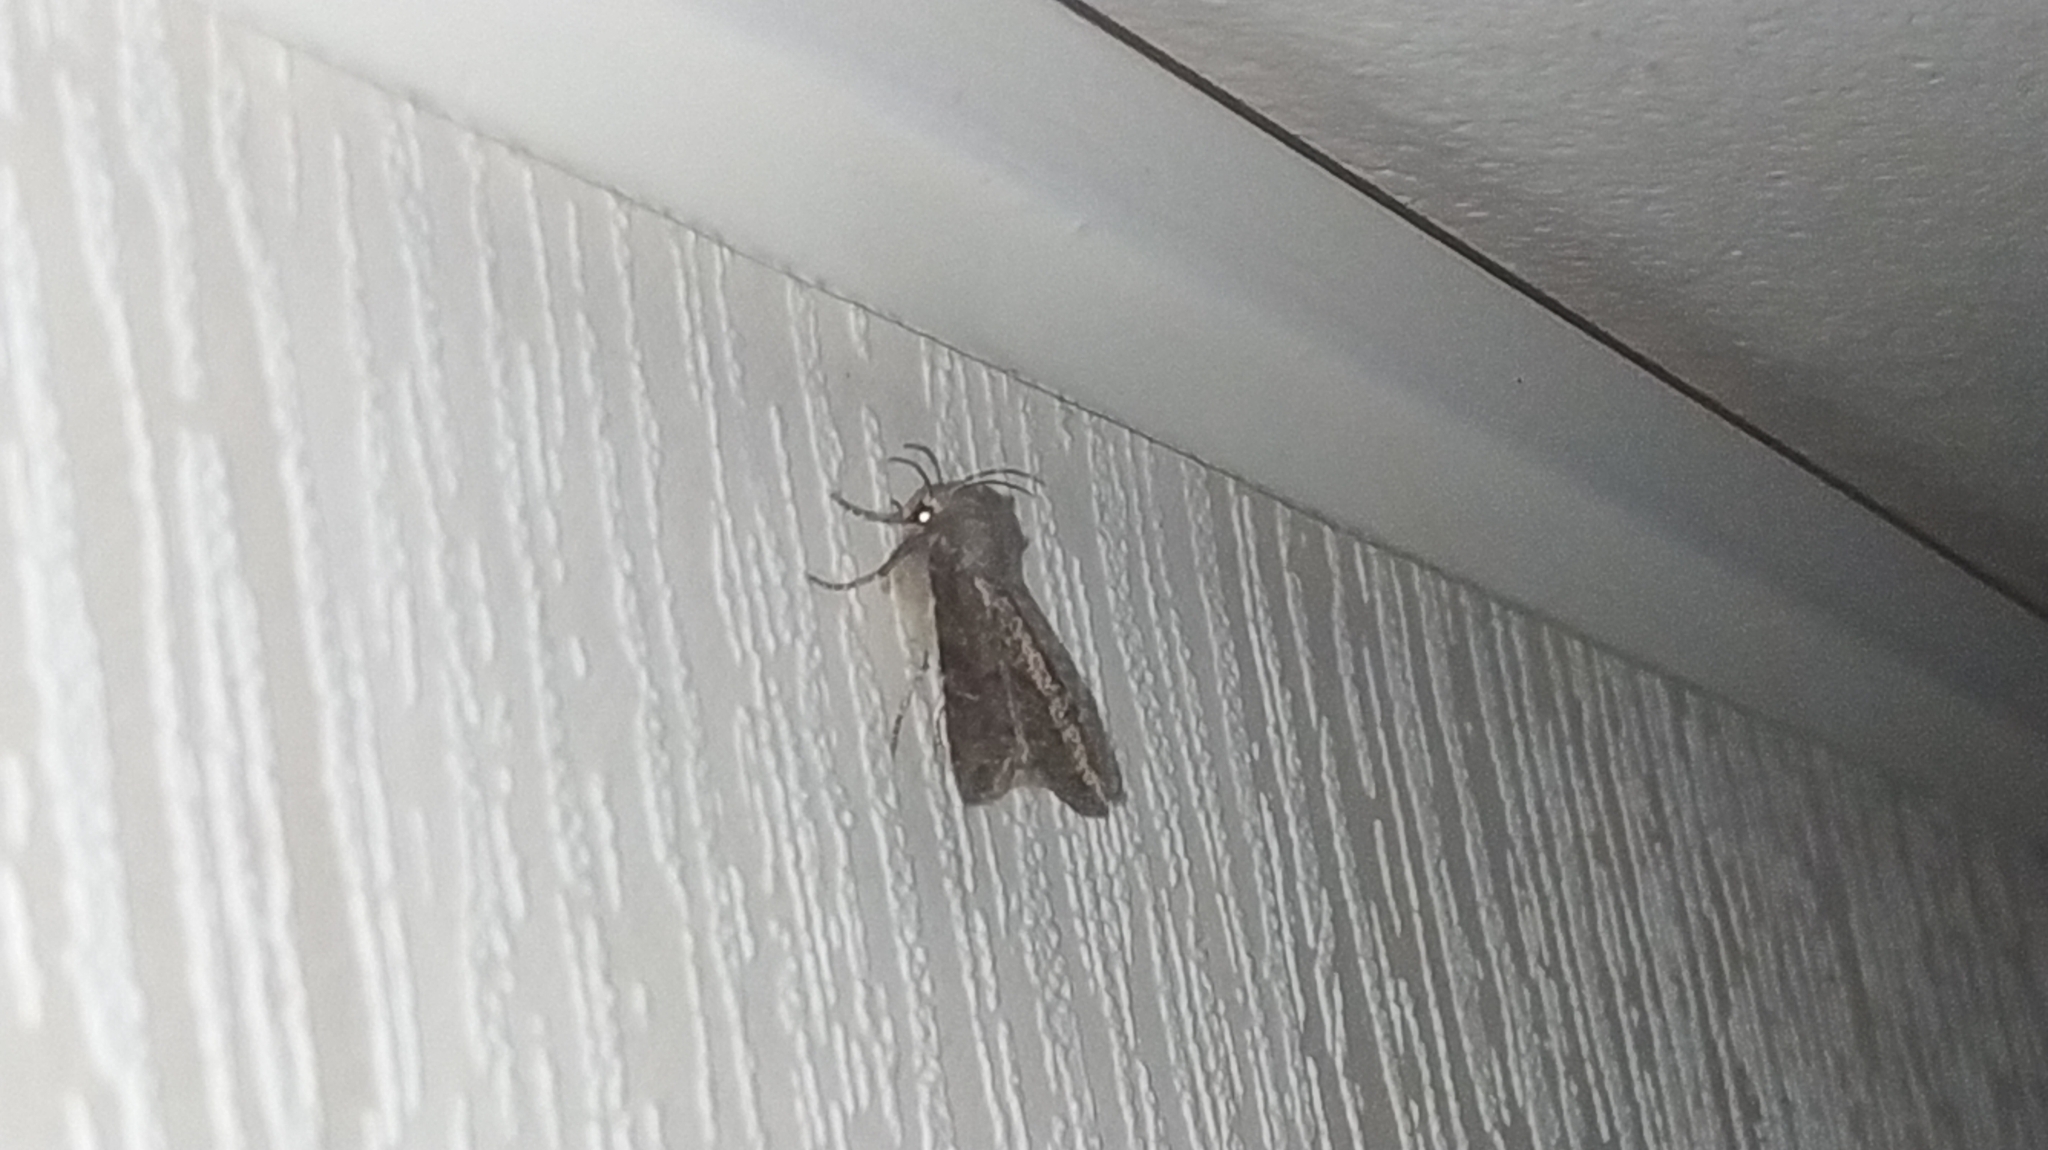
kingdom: Animalia
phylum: Arthropoda
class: Insecta
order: Lepidoptera
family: Noctuidae
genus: Parastichtis
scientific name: Parastichtis suspecta
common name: Suspected
